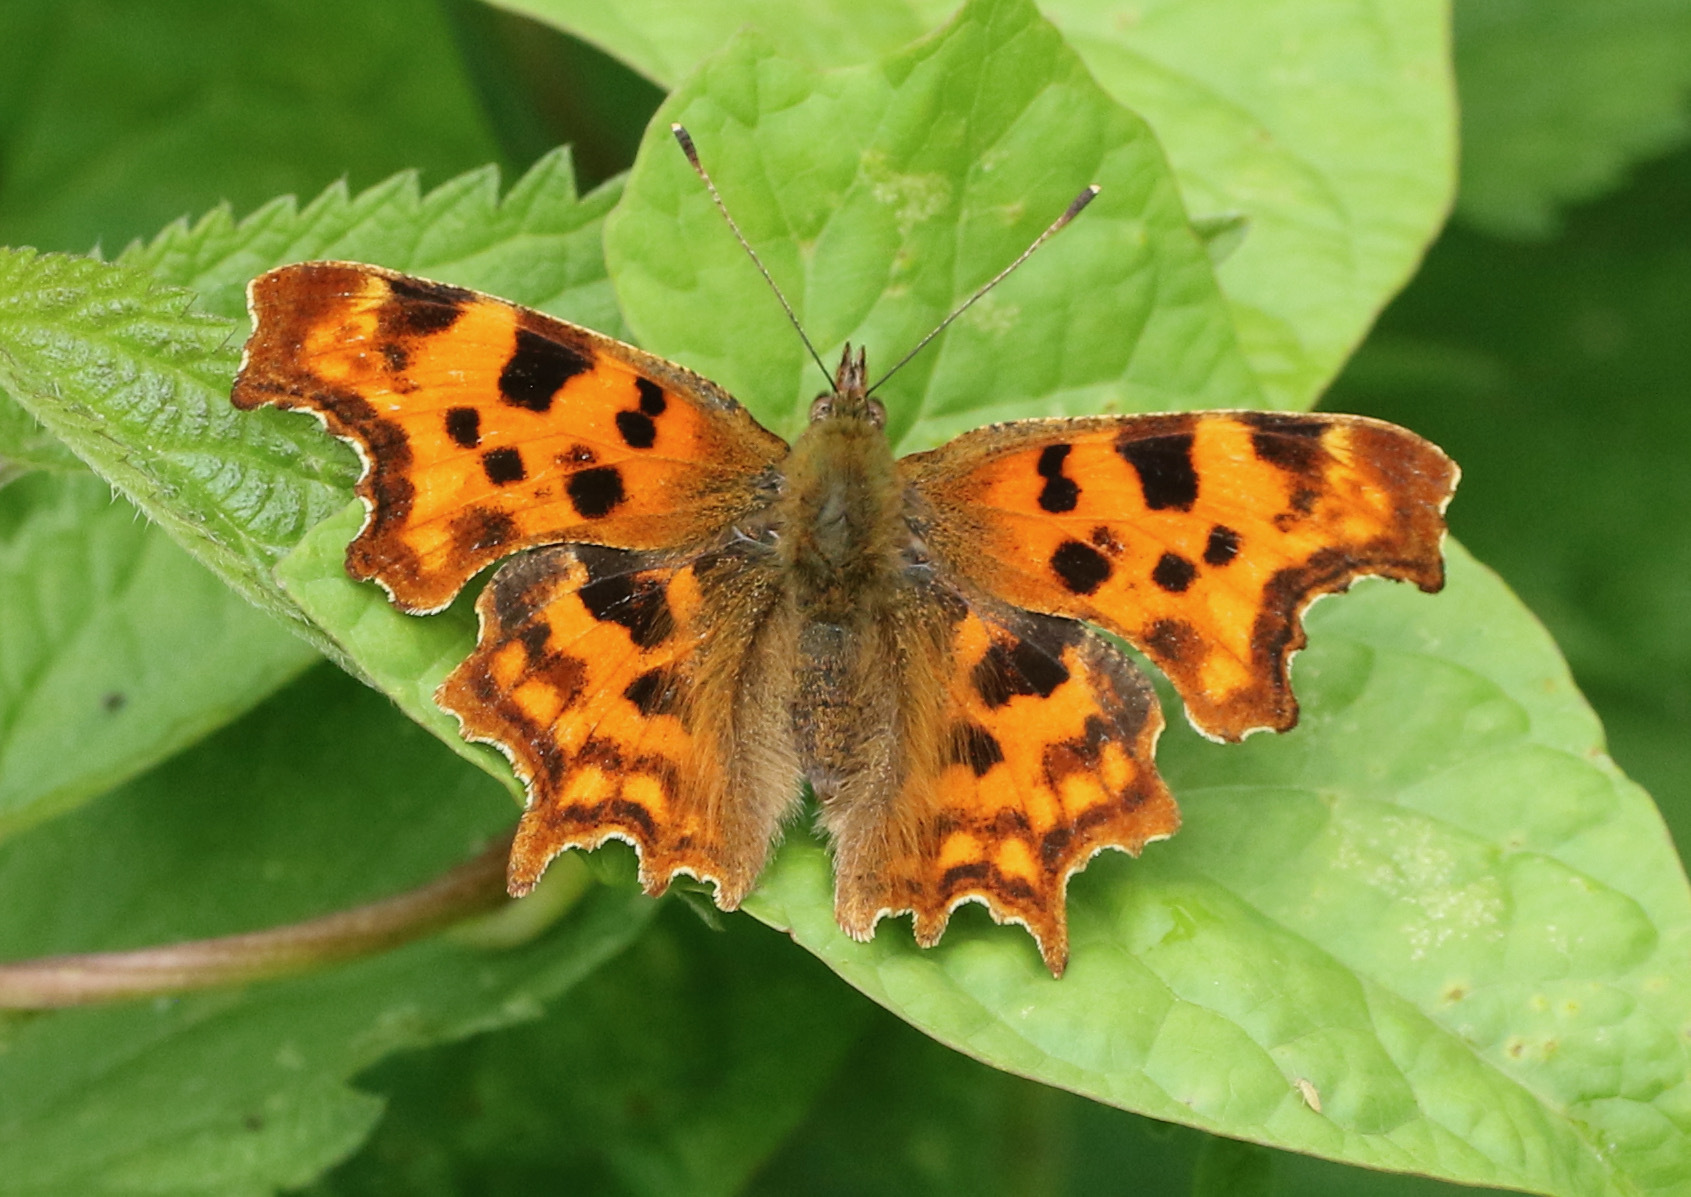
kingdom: Animalia
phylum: Arthropoda
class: Insecta
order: Lepidoptera
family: Nymphalidae
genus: Polygonia
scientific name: Polygonia c-album
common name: Comma
